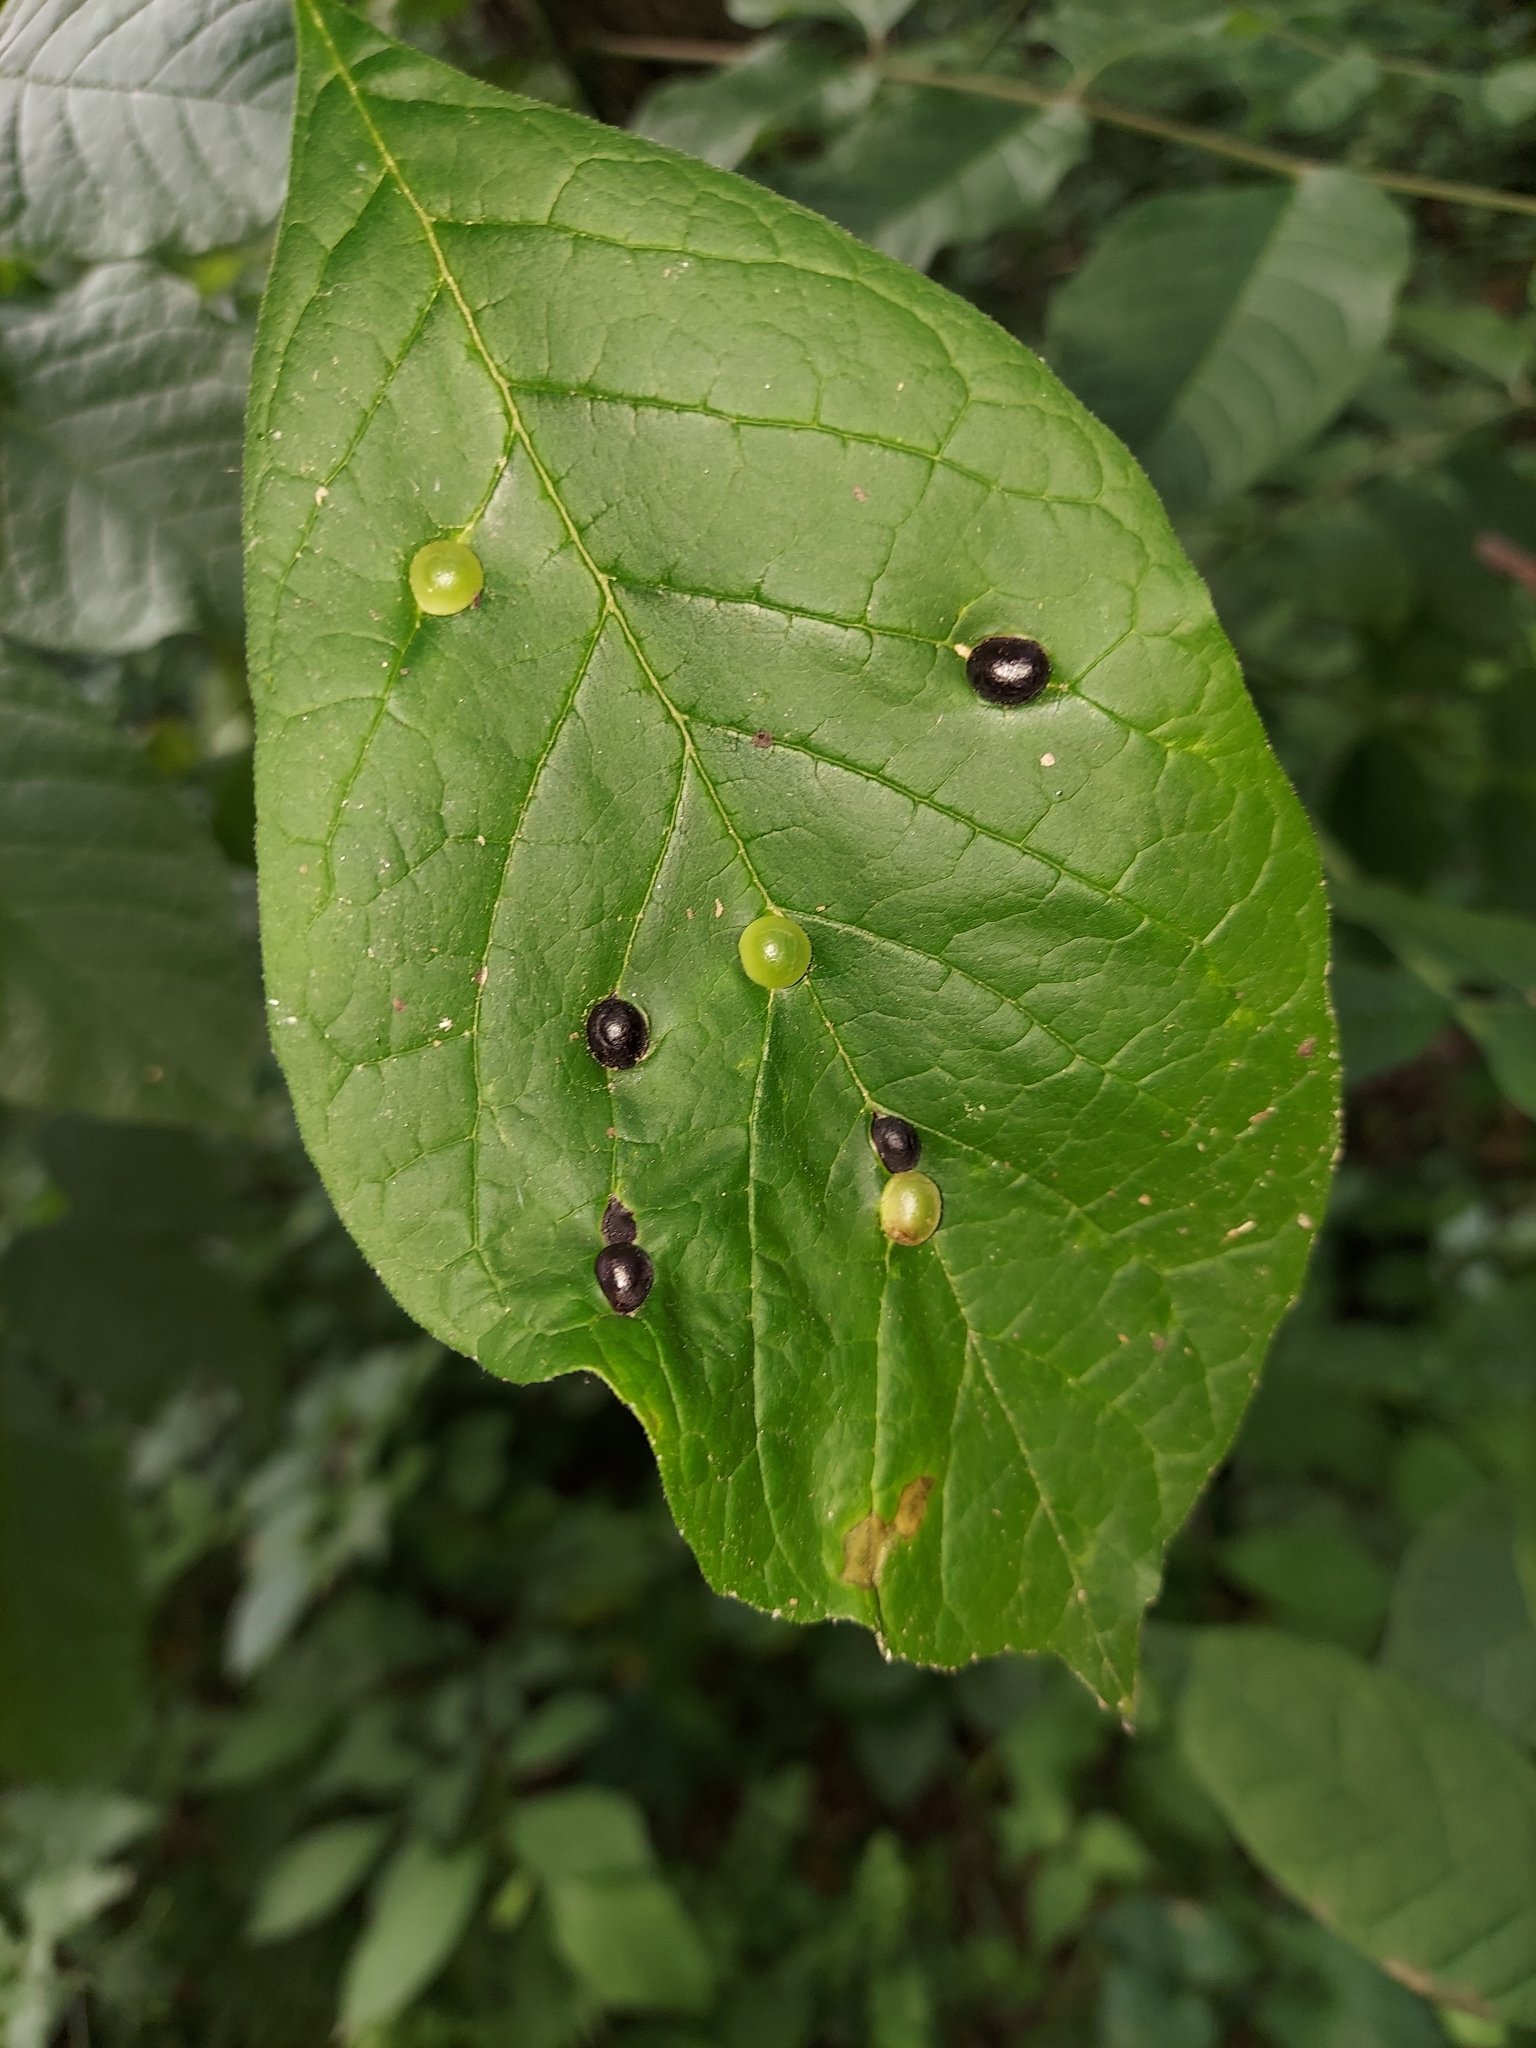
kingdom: Animalia
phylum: Arthropoda
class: Insecta
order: Diptera
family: Cecidomyiidae
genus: Dasineura
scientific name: Dasineura pellex
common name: Ash bullet gall midge
